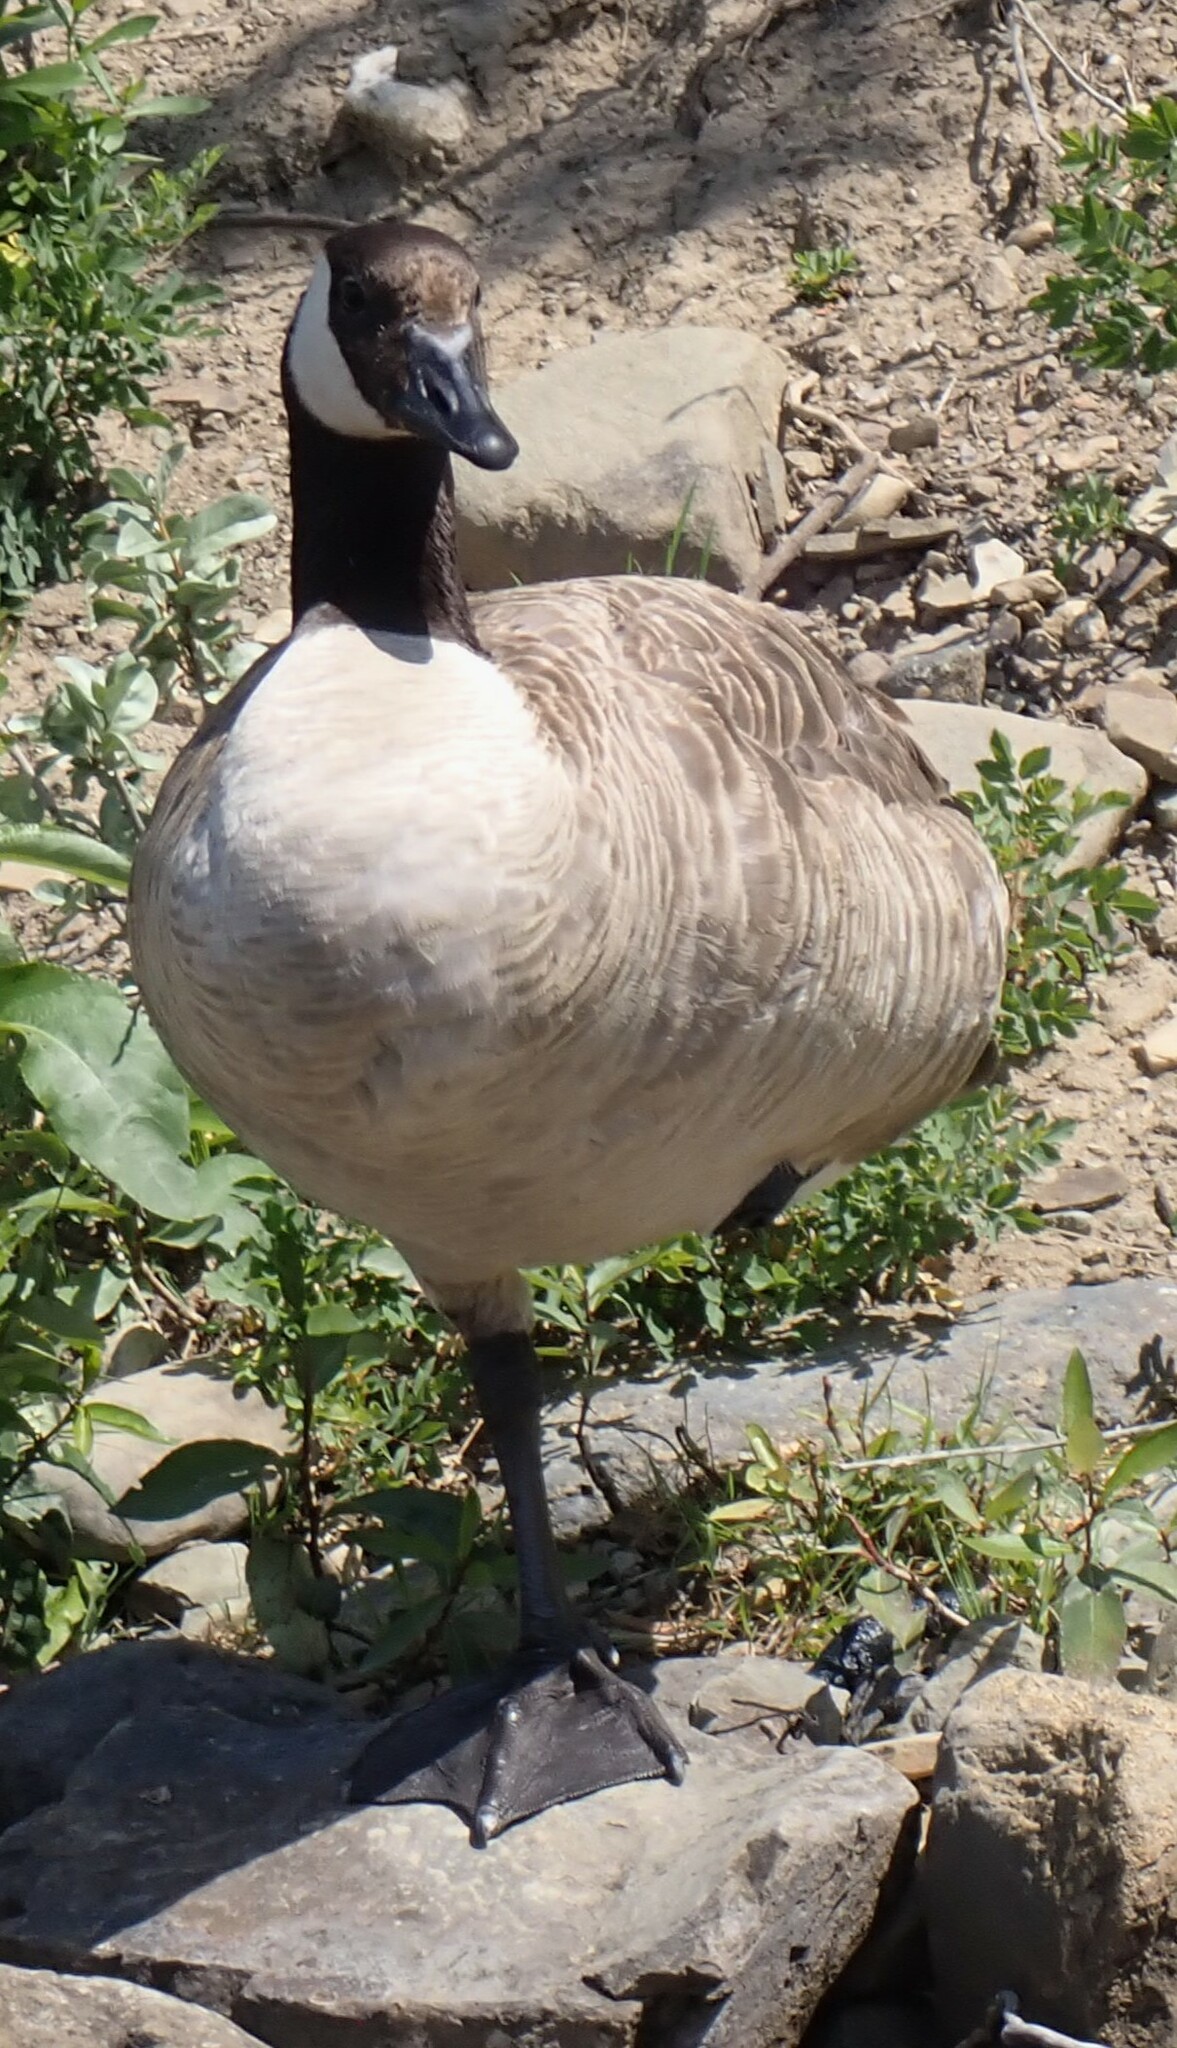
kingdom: Animalia
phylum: Chordata
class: Aves
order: Anseriformes
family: Anatidae
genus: Branta
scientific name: Branta canadensis
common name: Canada goose
